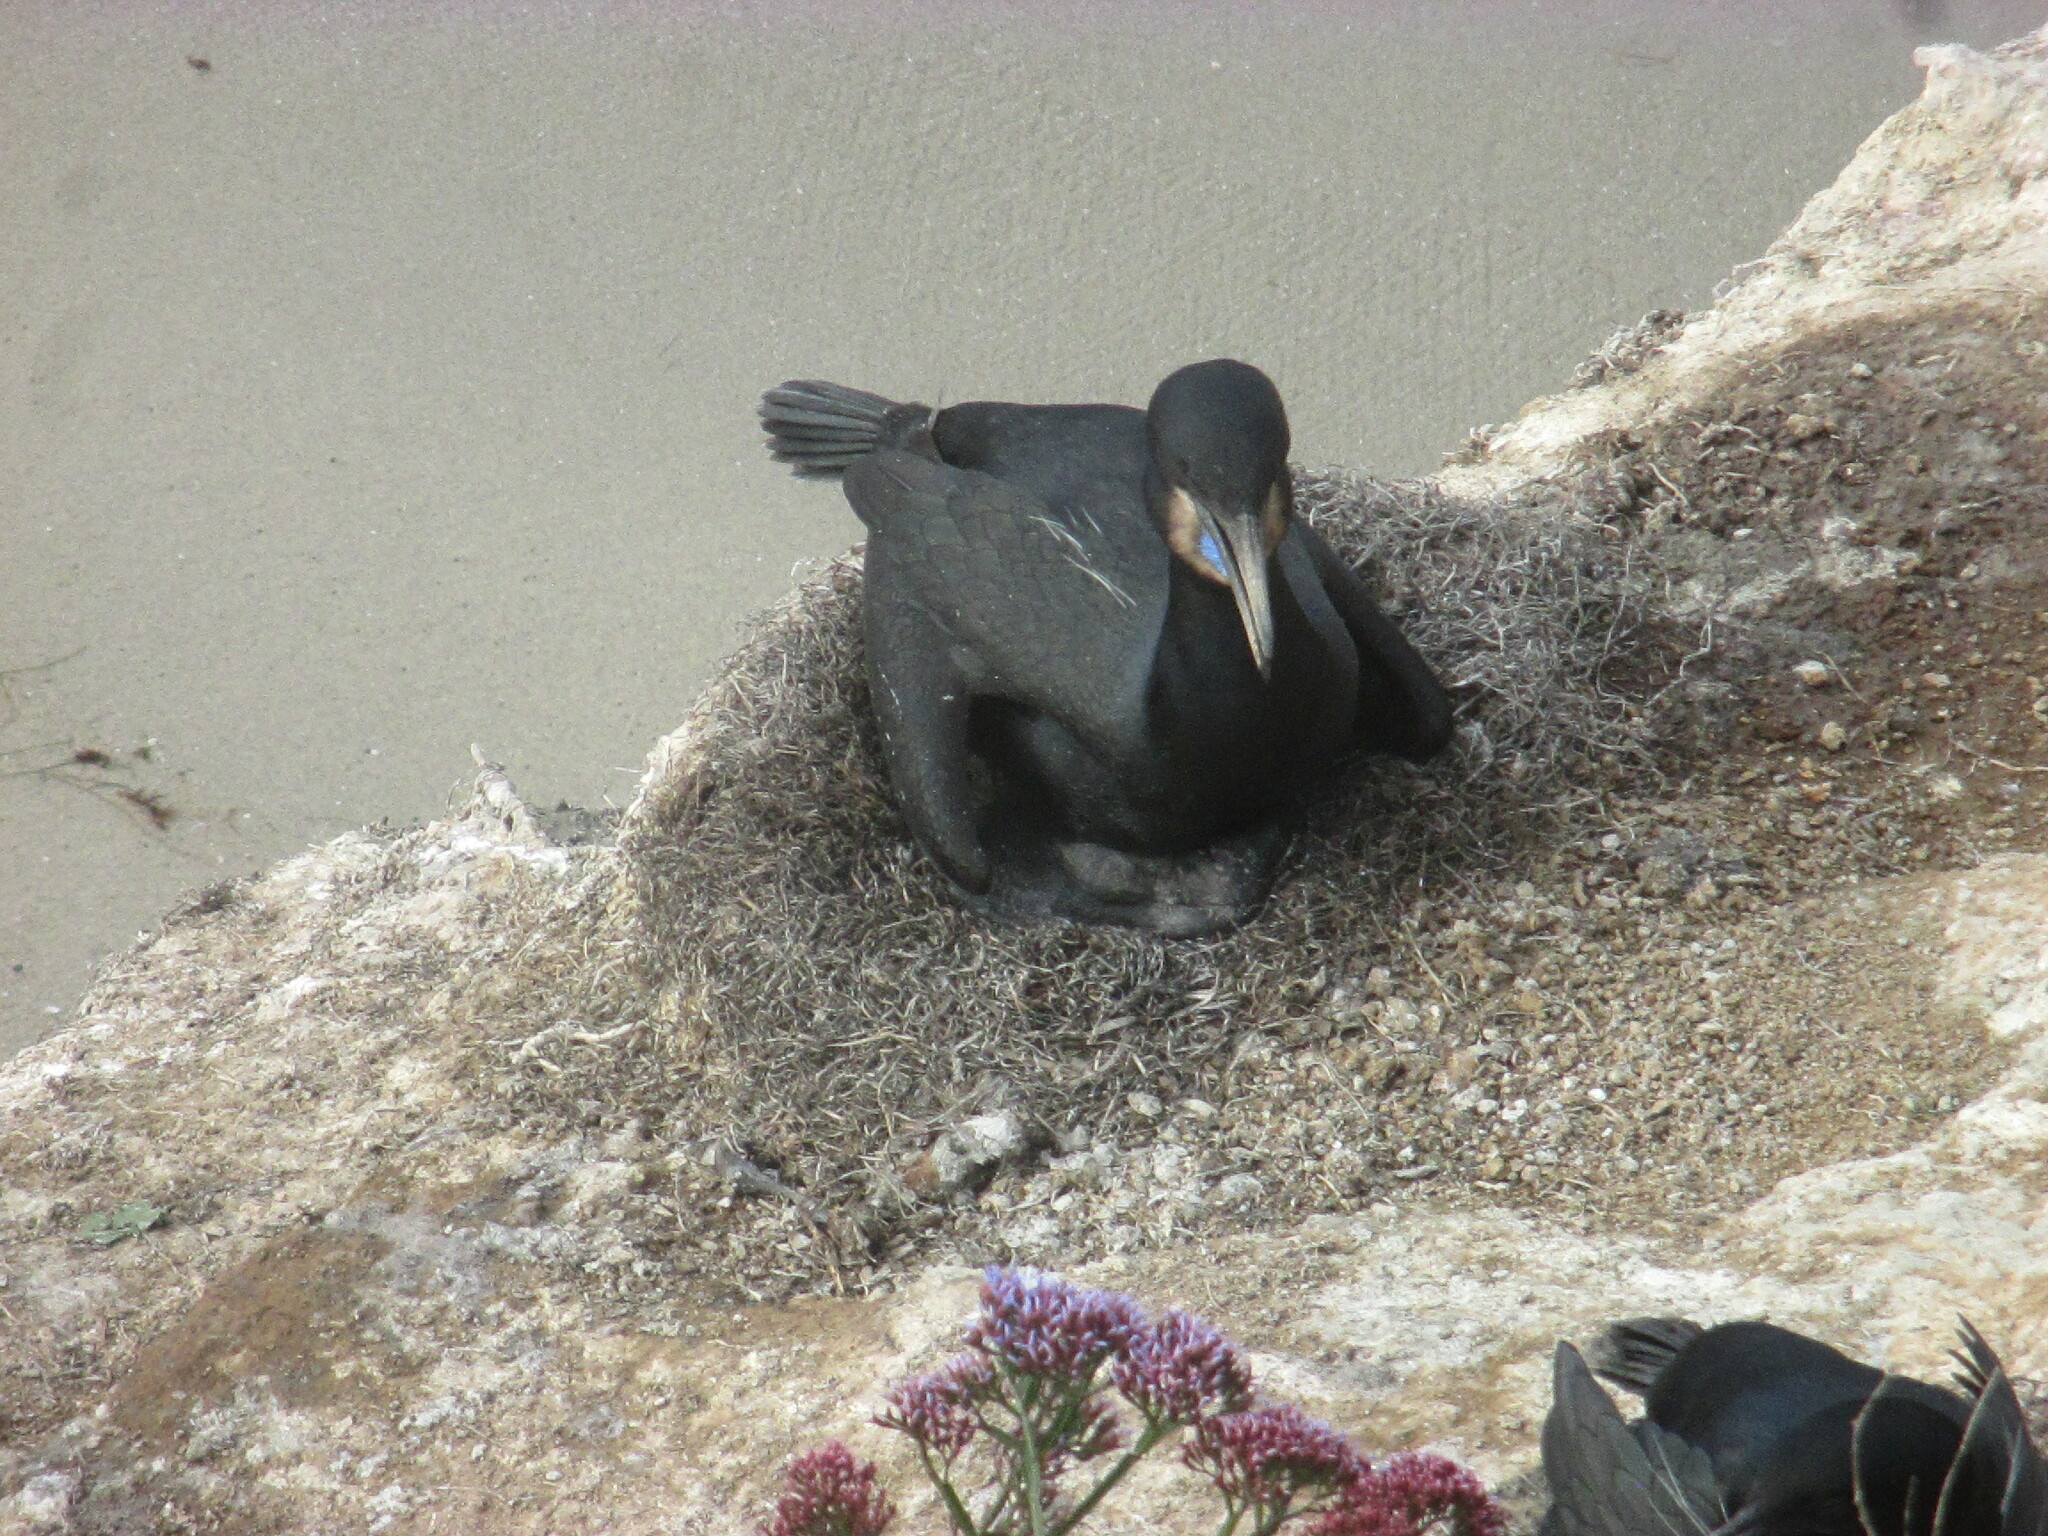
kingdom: Animalia
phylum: Chordata
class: Aves
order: Suliformes
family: Phalacrocoracidae
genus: Urile
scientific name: Urile penicillatus
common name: Brandt's cormorant
